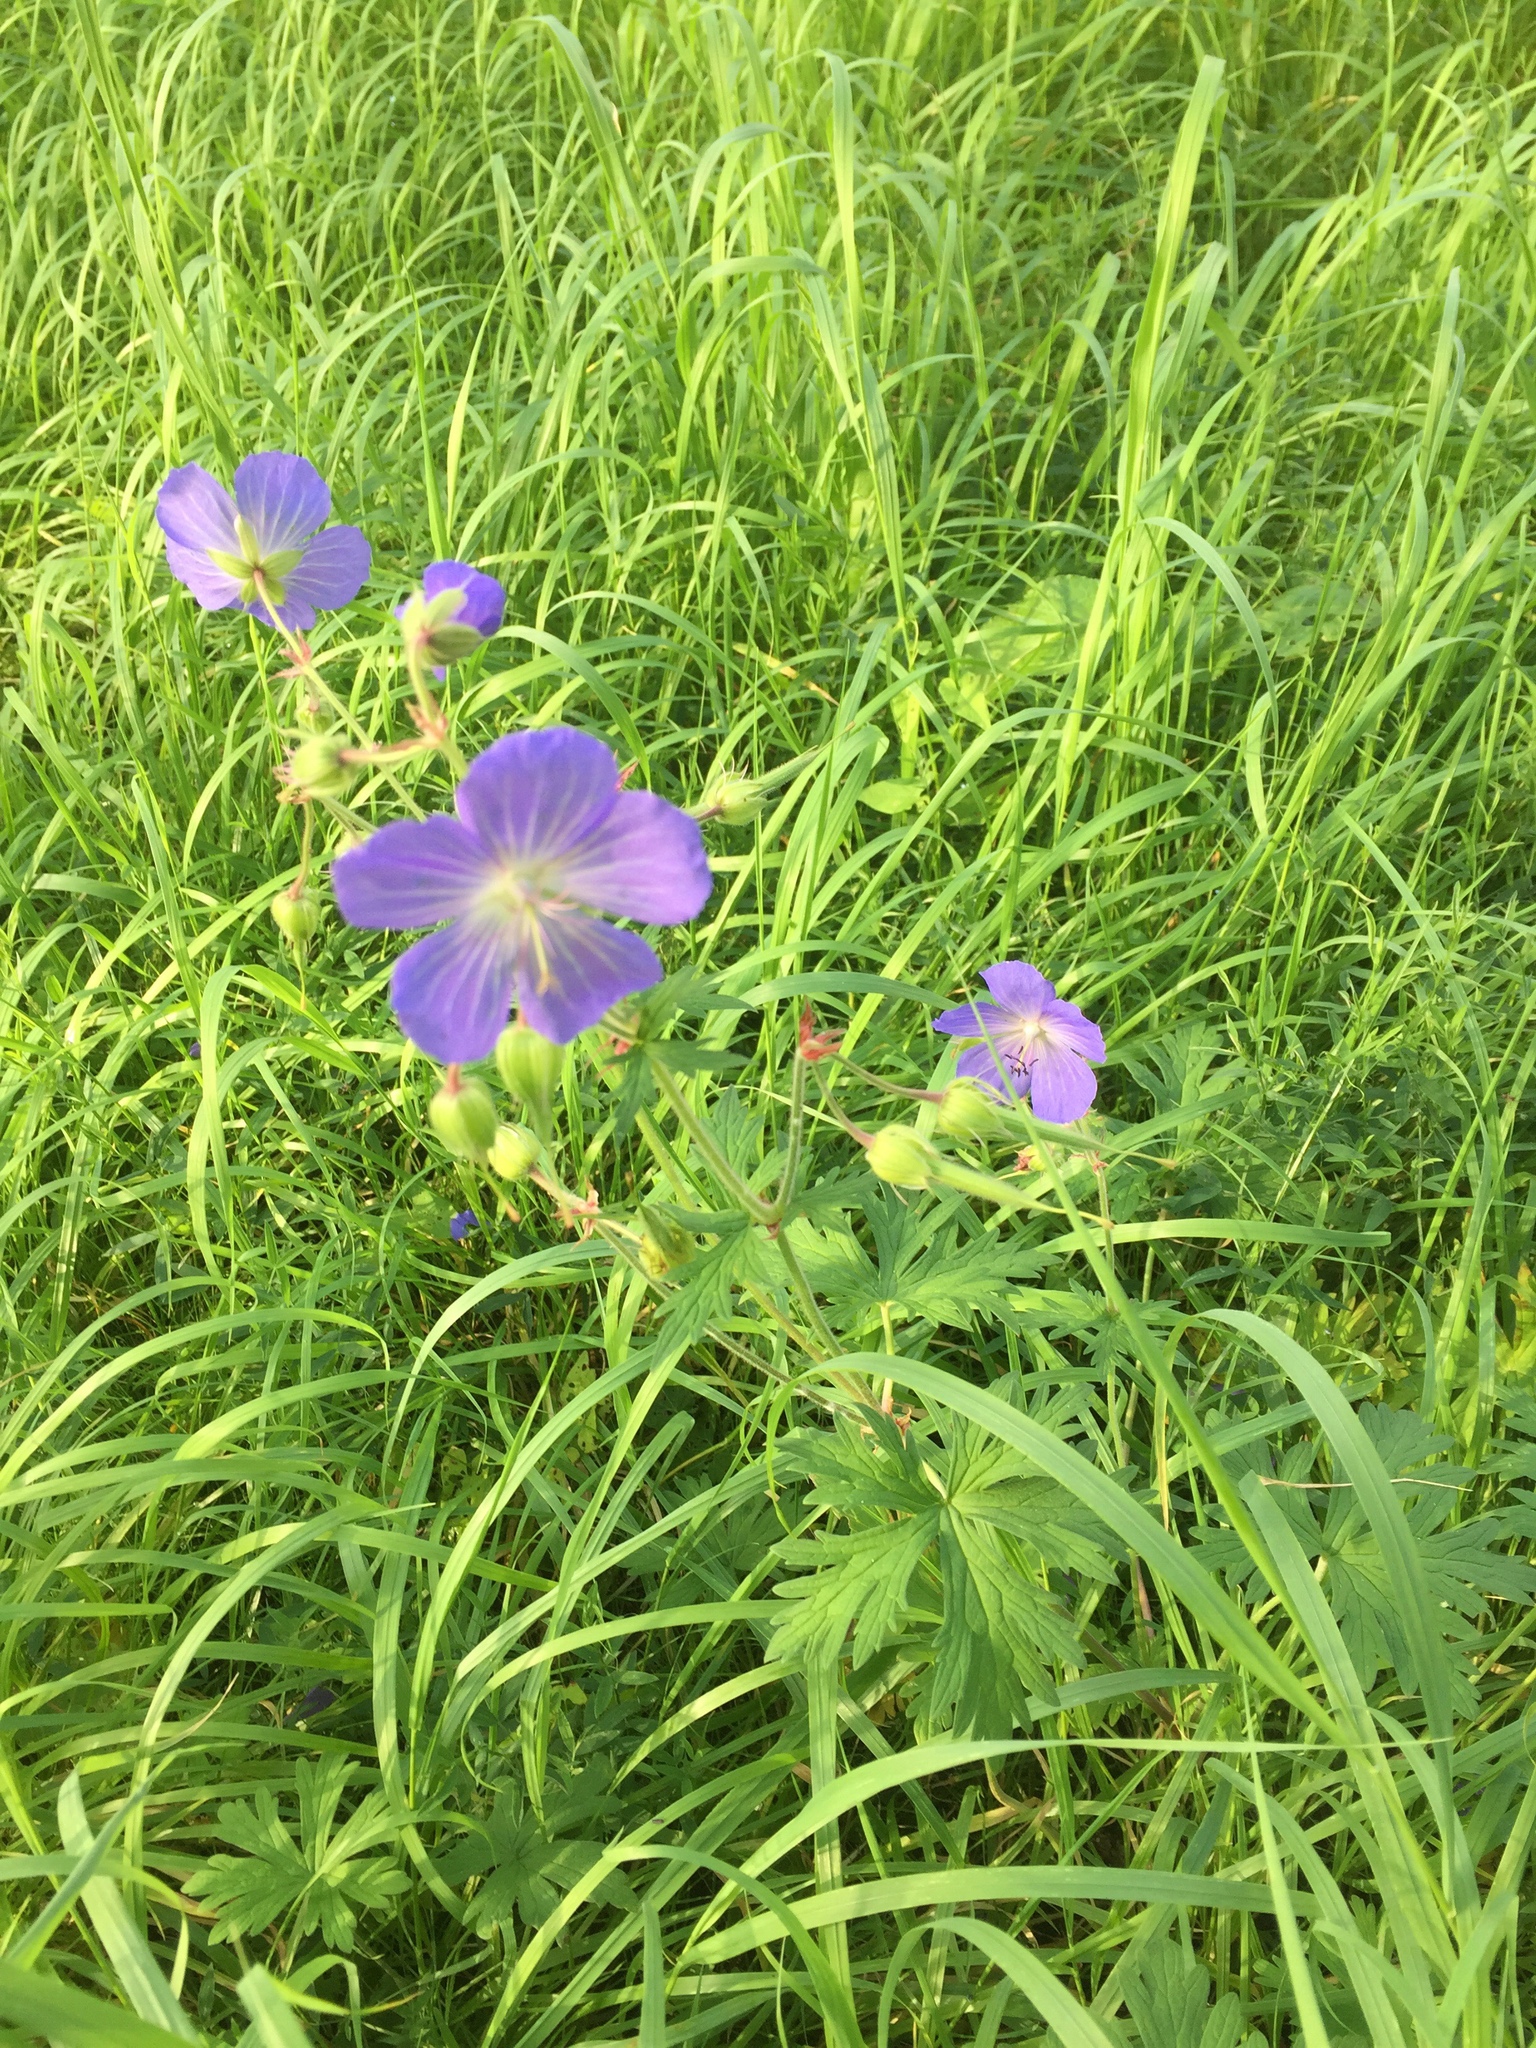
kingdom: Plantae
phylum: Tracheophyta
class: Magnoliopsida
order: Geraniales
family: Geraniaceae
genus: Geranium
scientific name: Geranium pratense
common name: Meadow crane's-bill
